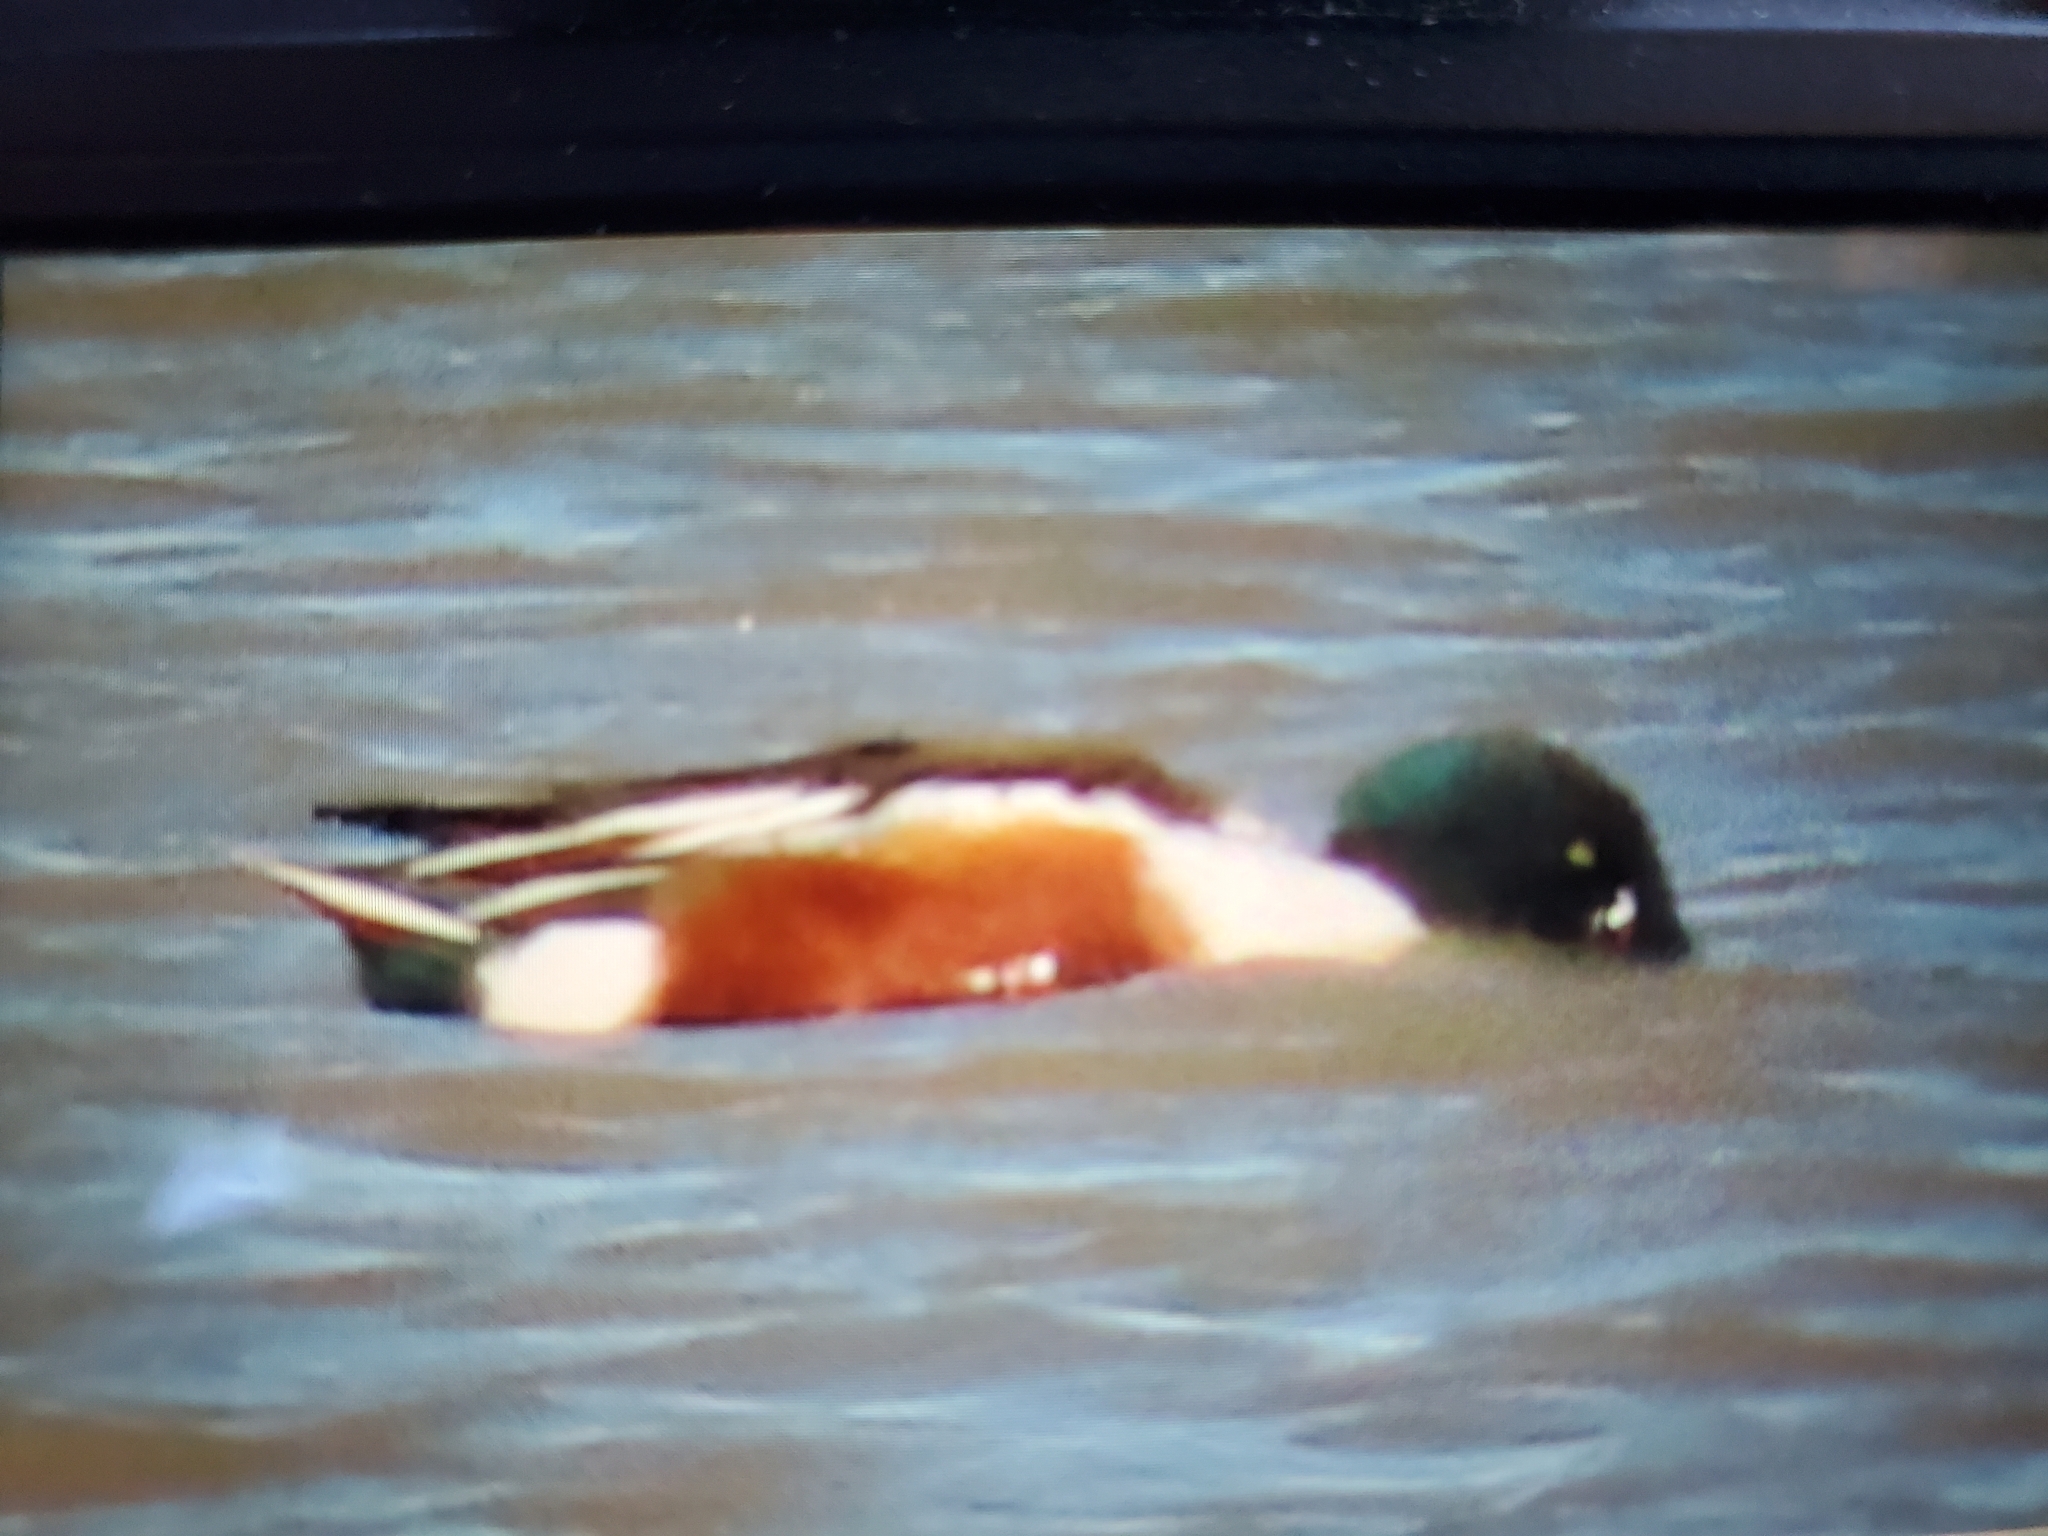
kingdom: Animalia
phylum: Chordata
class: Aves
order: Anseriformes
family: Anatidae
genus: Spatula
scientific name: Spatula clypeata
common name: Northern shoveler
